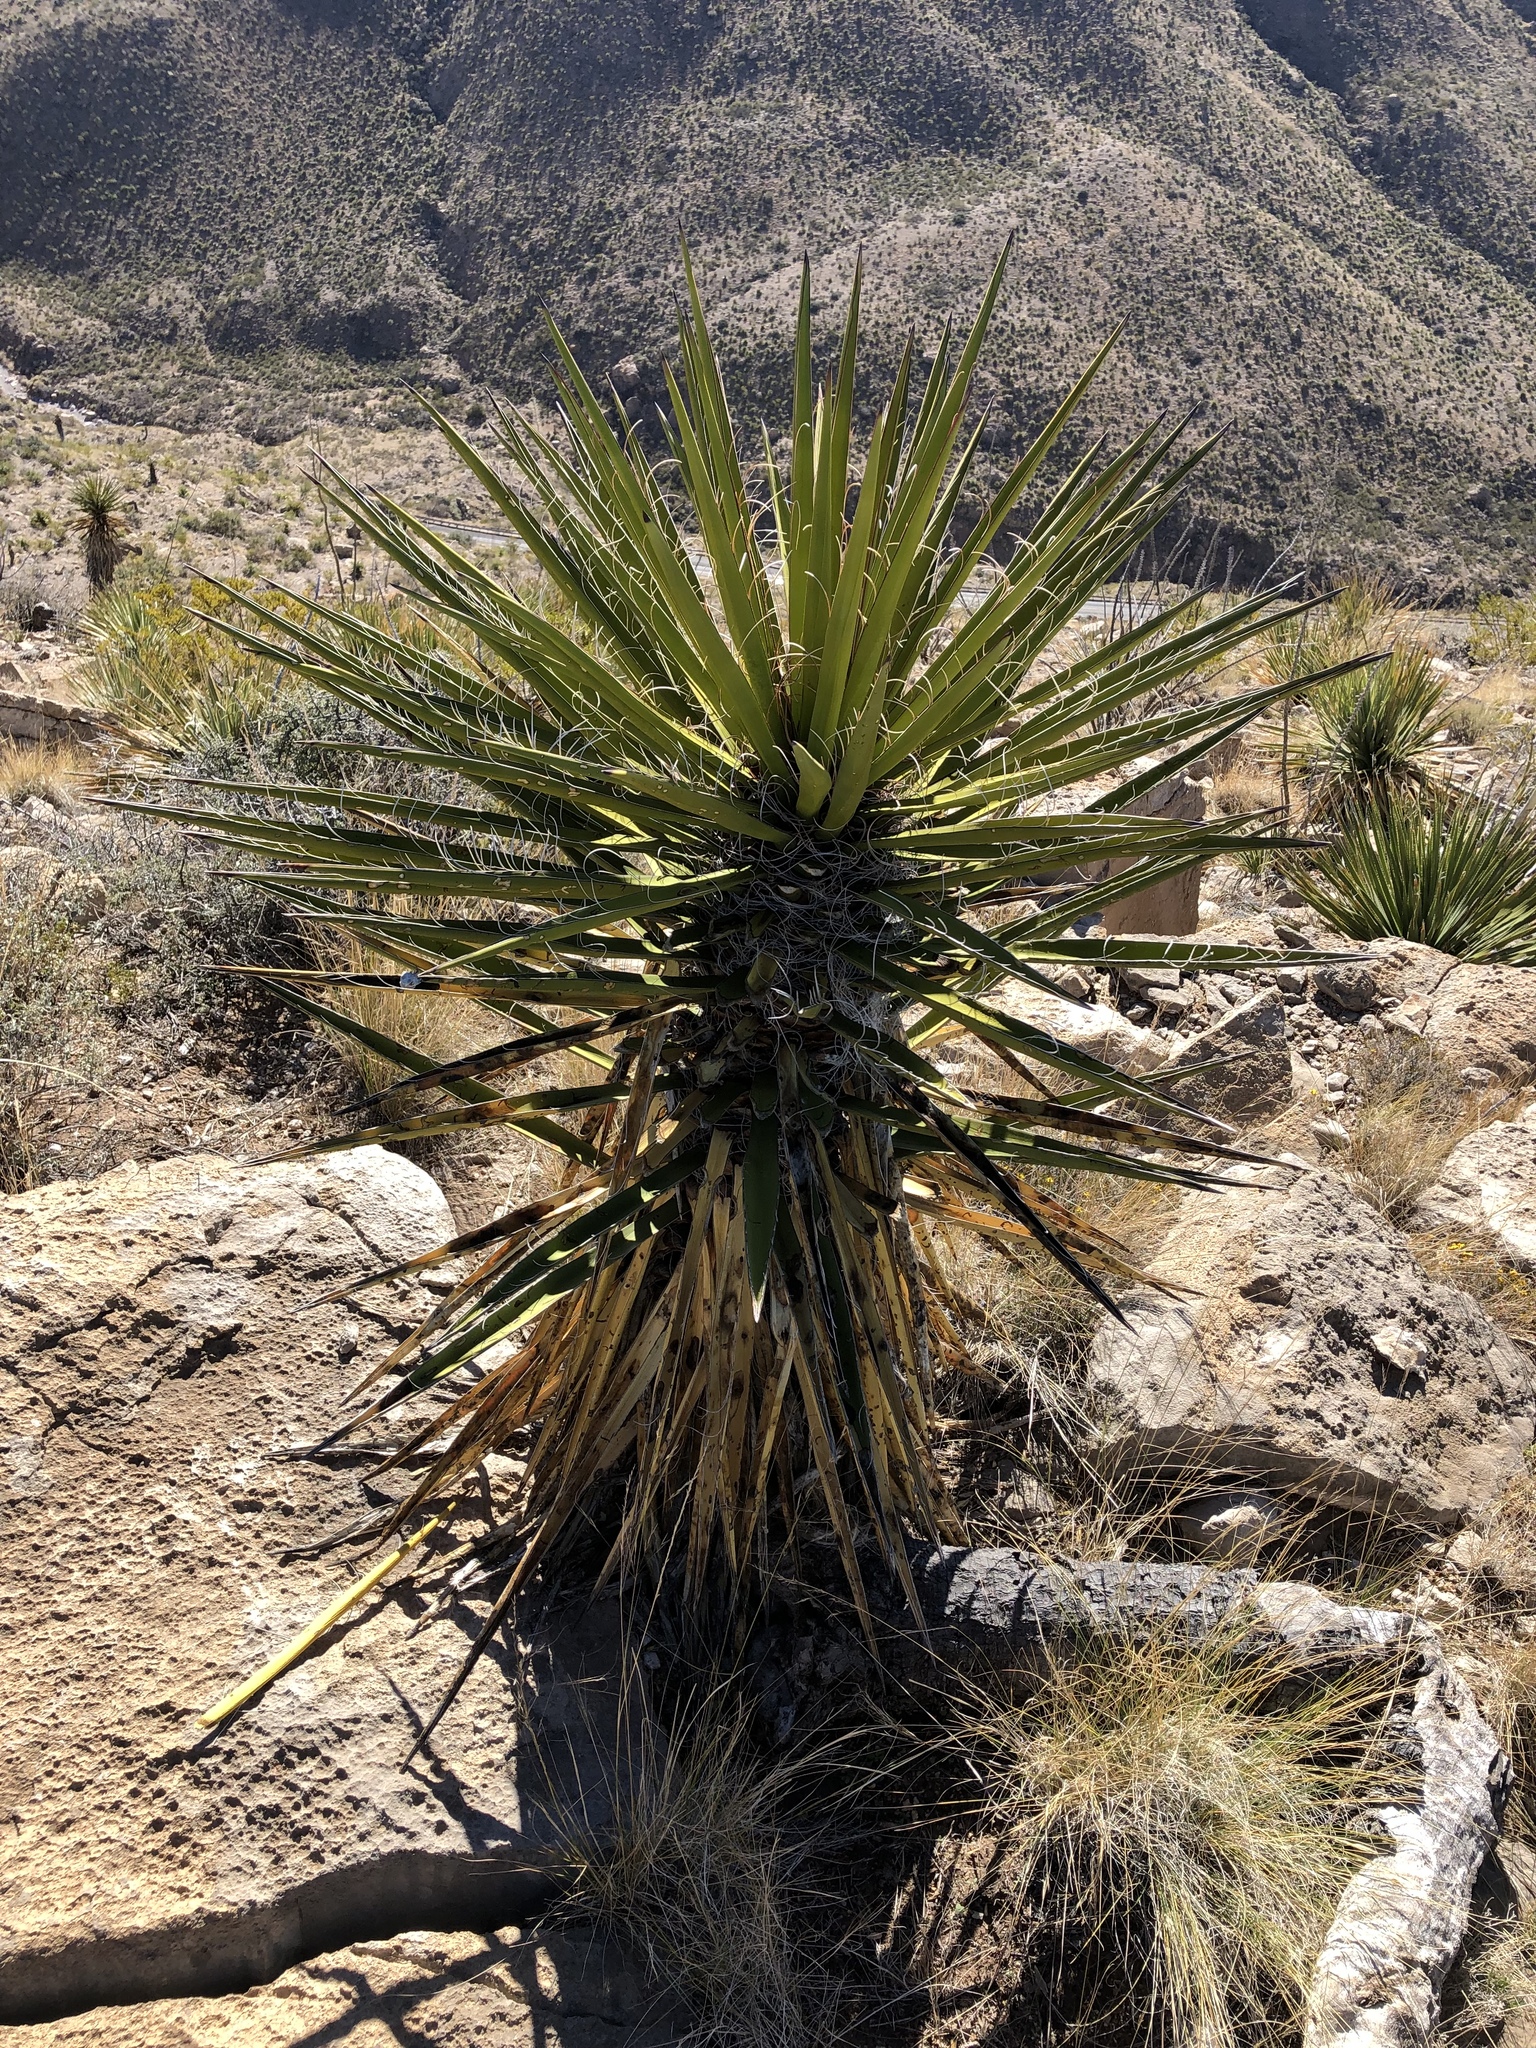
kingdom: Plantae
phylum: Tracheophyta
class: Liliopsida
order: Asparagales
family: Asparagaceae
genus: Yucca
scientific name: Yucca treculiana
